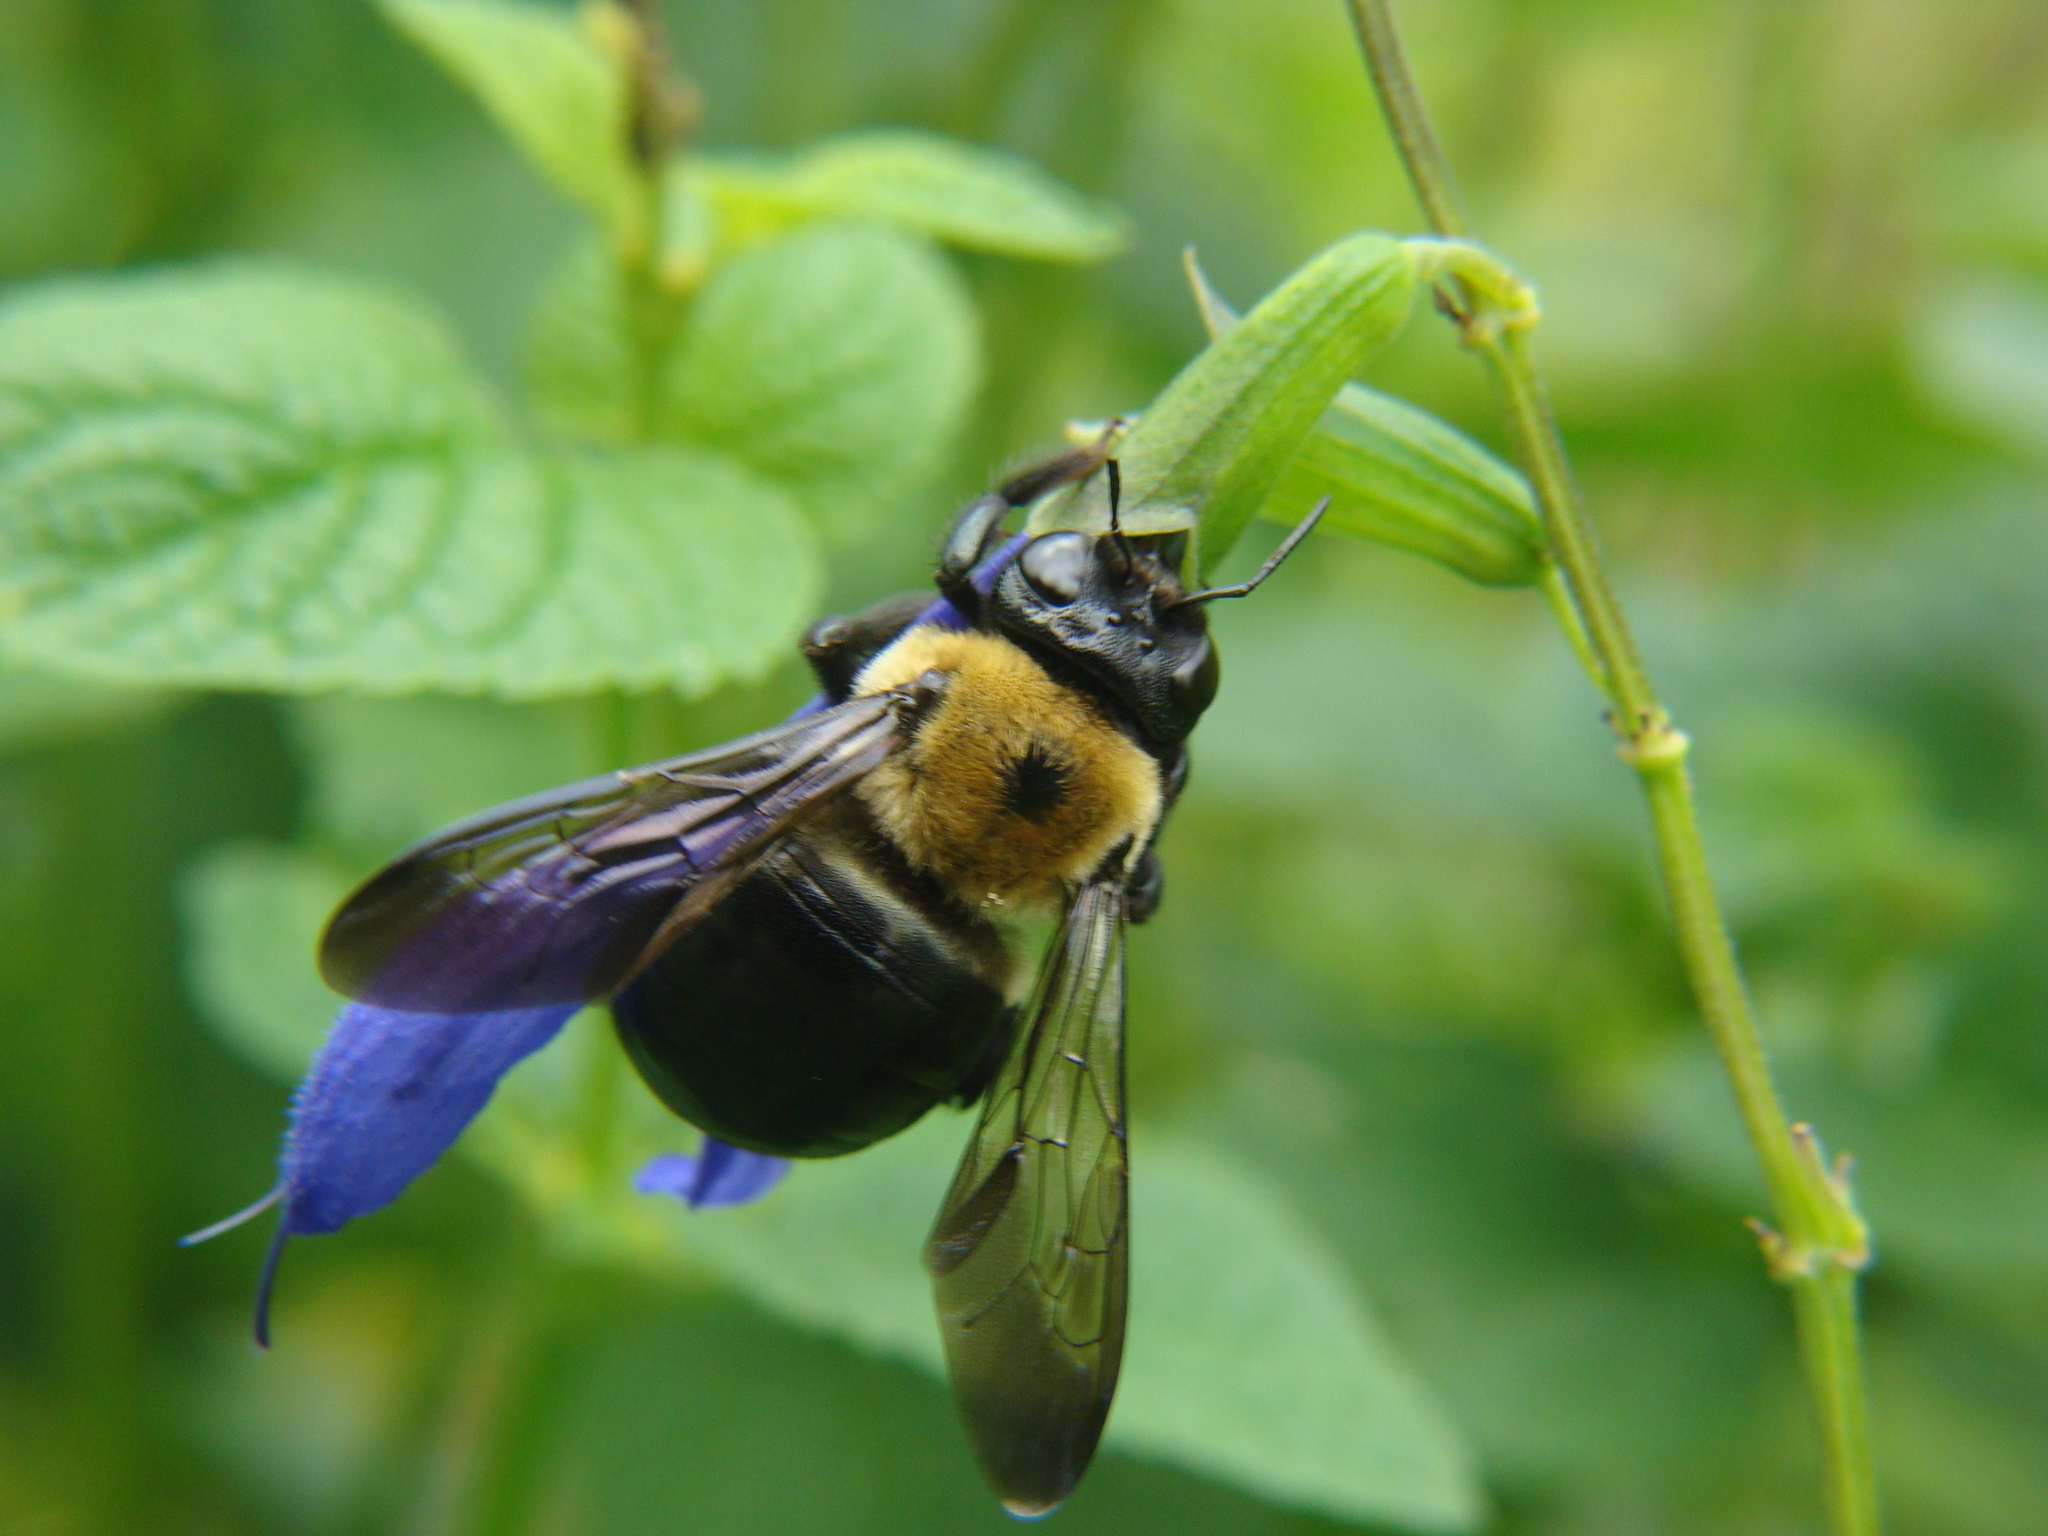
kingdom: Animalia
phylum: Arthropoda
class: Insecta
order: Hymenoptera
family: Apidae
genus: Xylocopa
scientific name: Xylocopa virginica
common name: Carpenter bee
